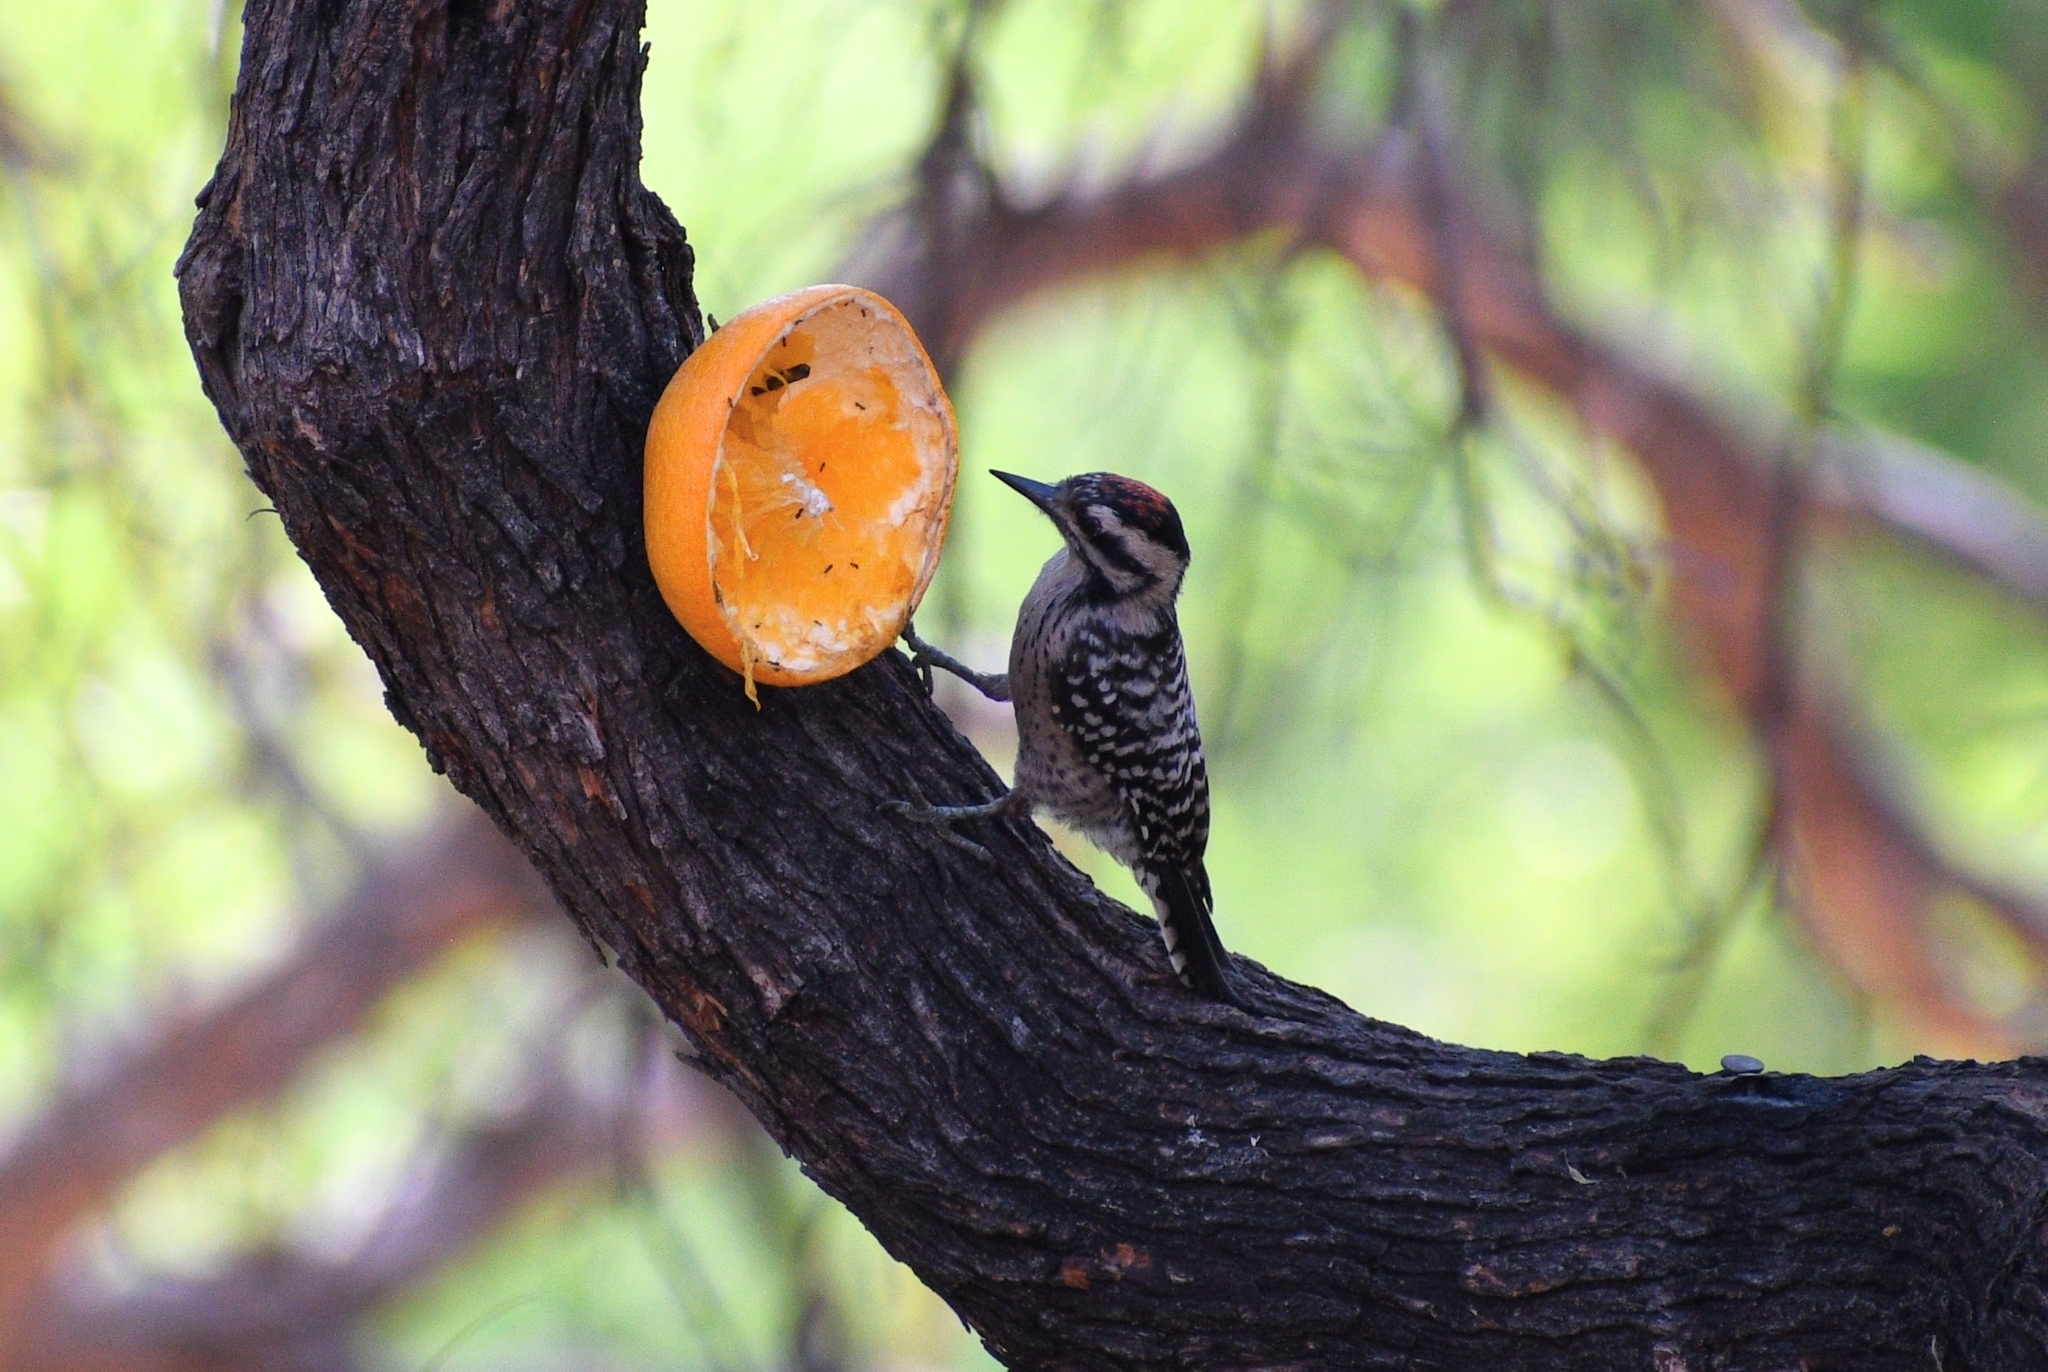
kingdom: Animalia
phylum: Chordata
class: Aves
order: Piciformes
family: Picidae
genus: Dryobates
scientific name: Dryobates scalaris
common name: Ladder-backed woodpecker
